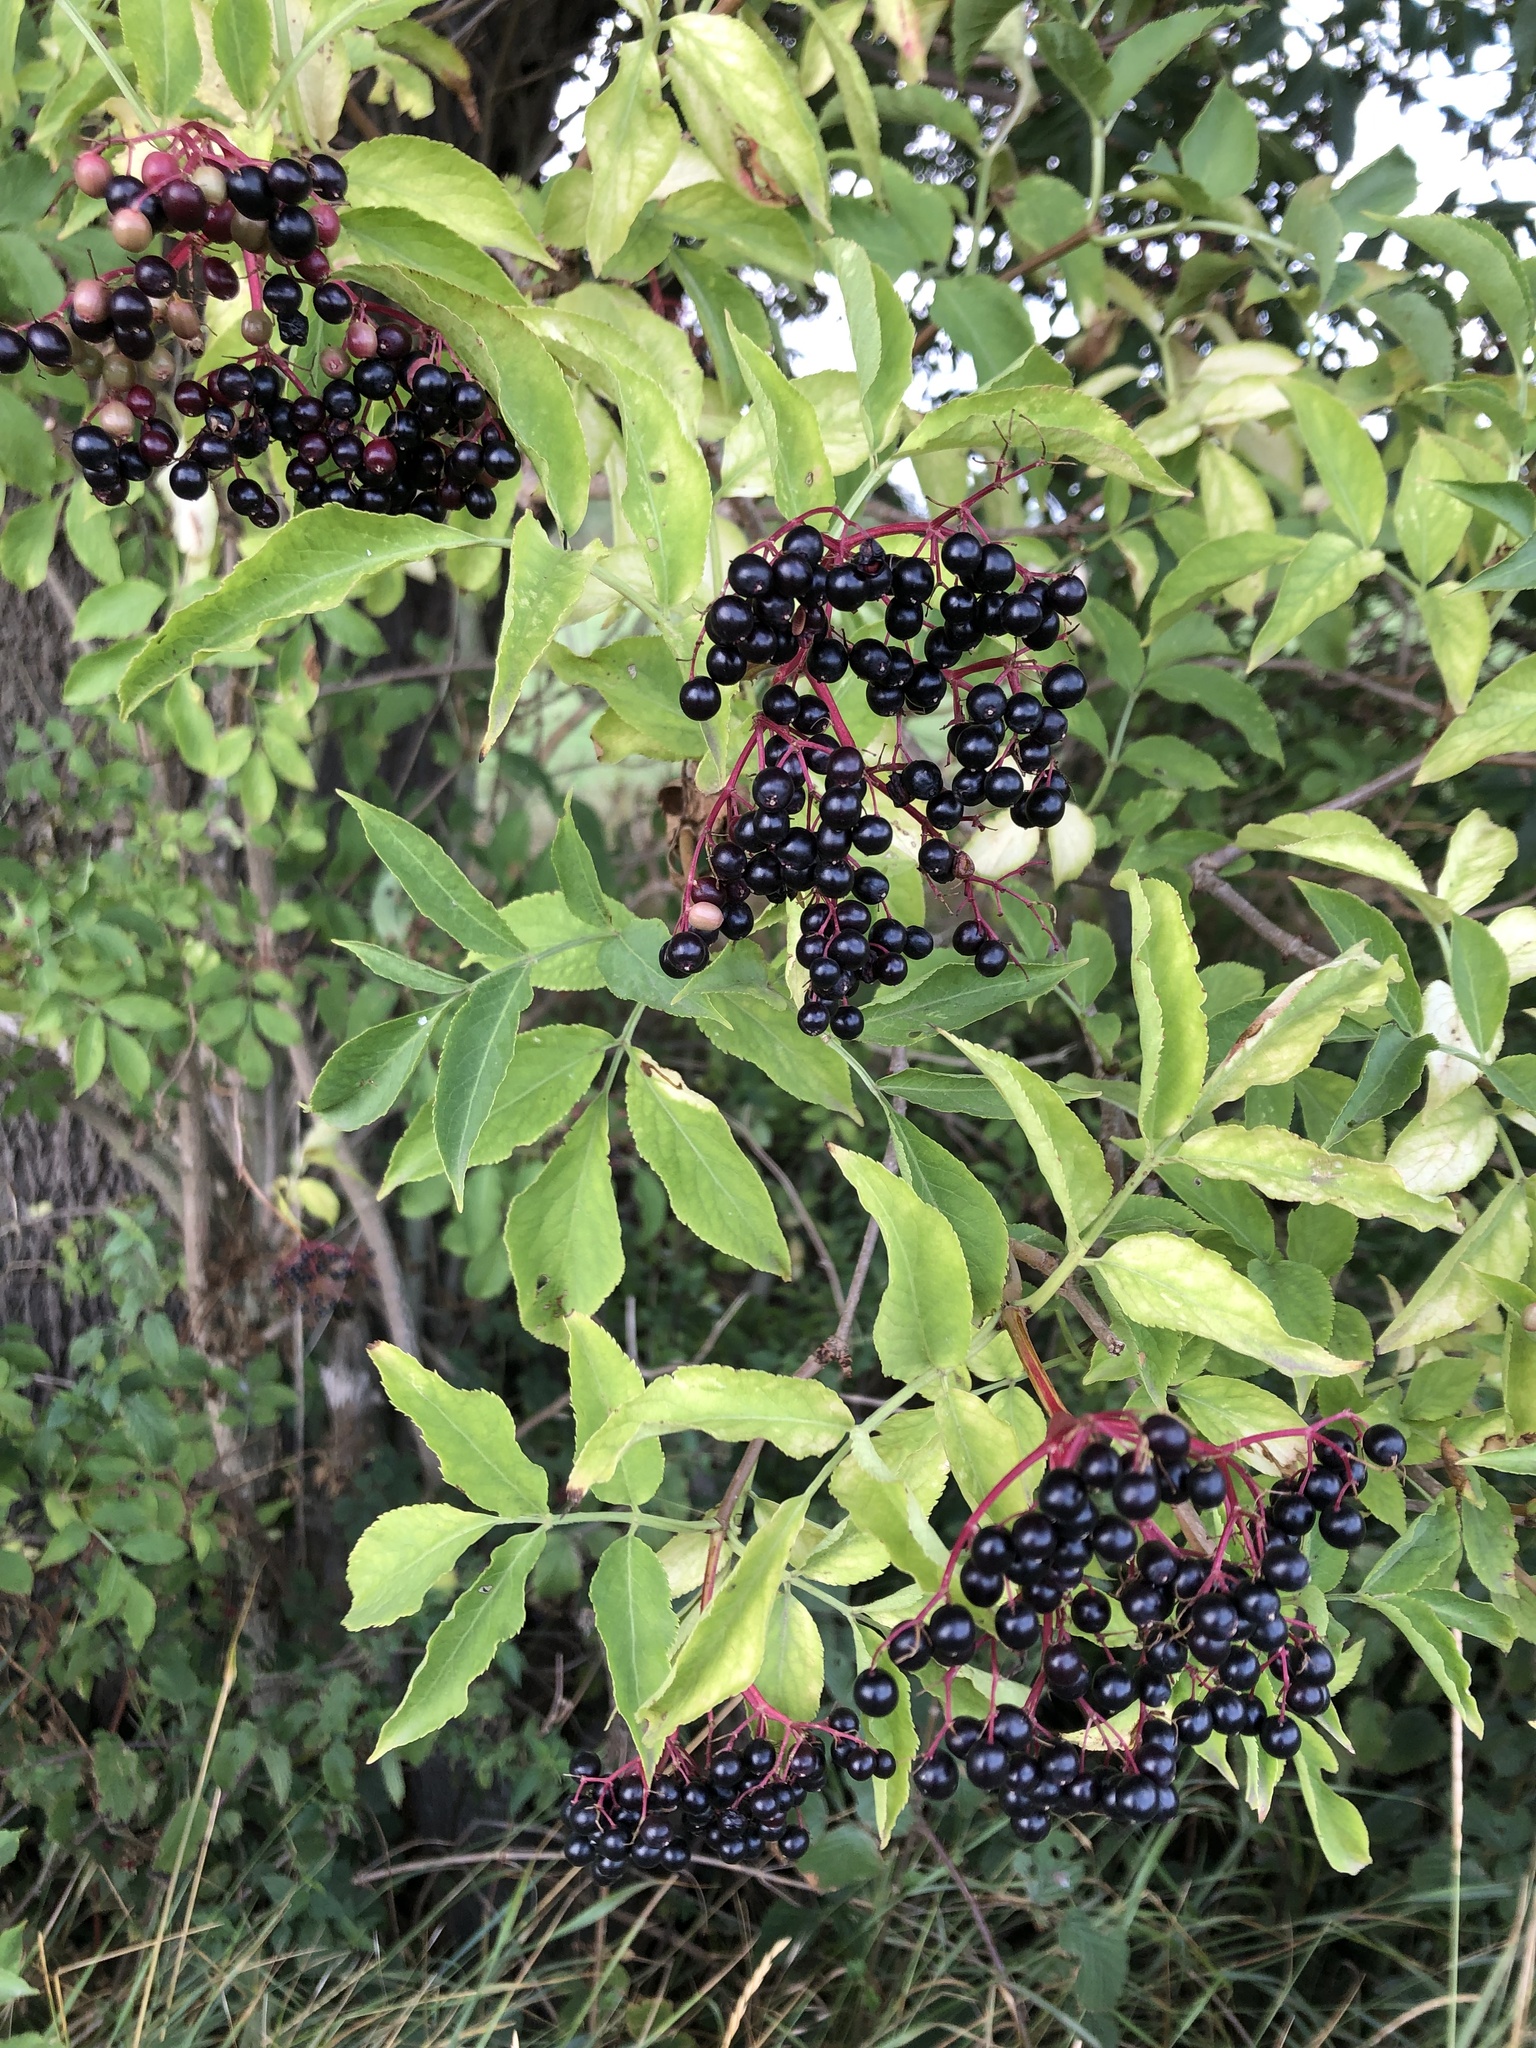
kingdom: Plantae
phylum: Tracheophyta
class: Magnoliopsida
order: Dipsacales
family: Viburnaceae
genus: Sambucus
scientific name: Sambucus nigra
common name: Elder
